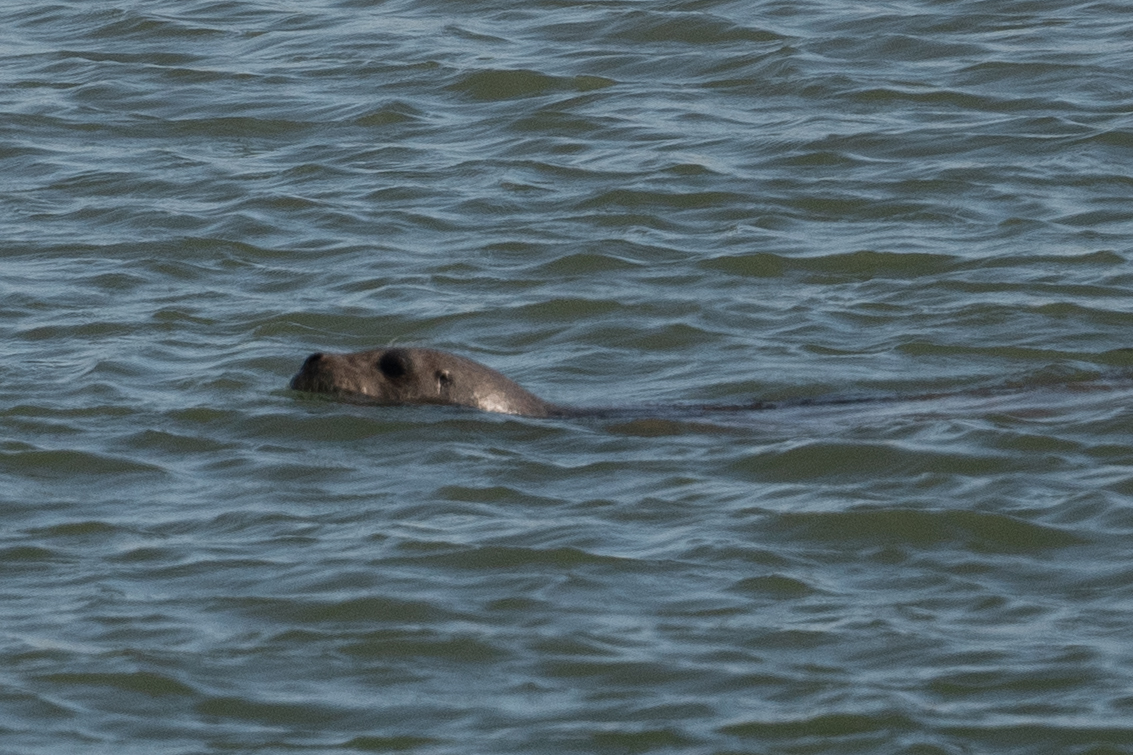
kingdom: Animalia
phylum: Chordata
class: Mammalia
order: Carnivora
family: Phocidae
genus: Phoca
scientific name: Phoca vitulina
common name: Harbor seal
